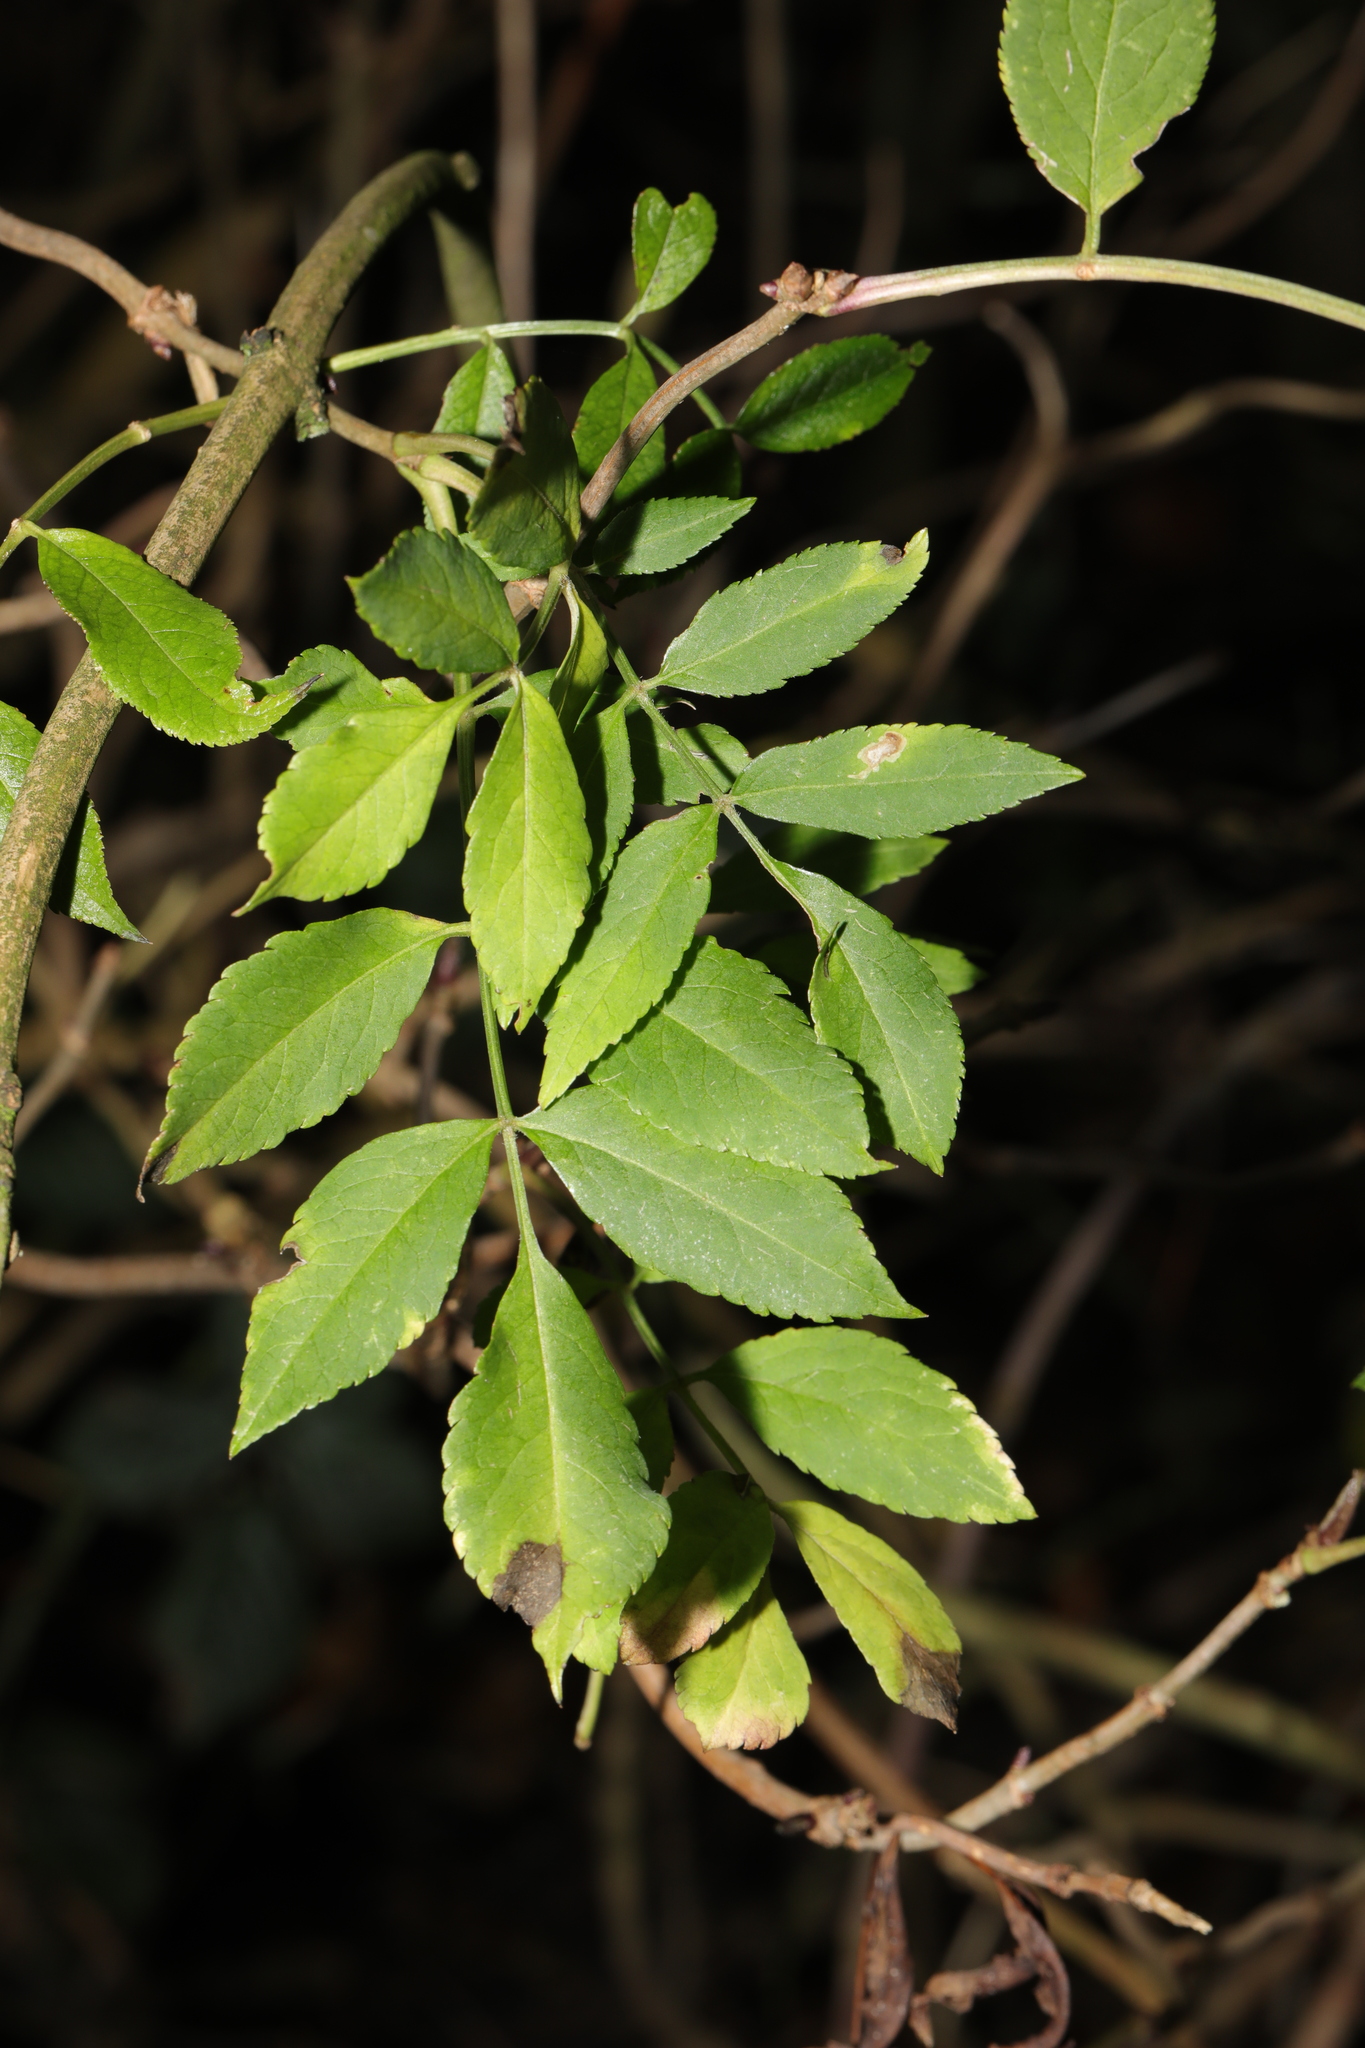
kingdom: Plantae
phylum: Tracheophyta
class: Magnoliopsida
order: Dipsacales
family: Viburnaceae
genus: Sambucus
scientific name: Sambucus nigra
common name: Elder
